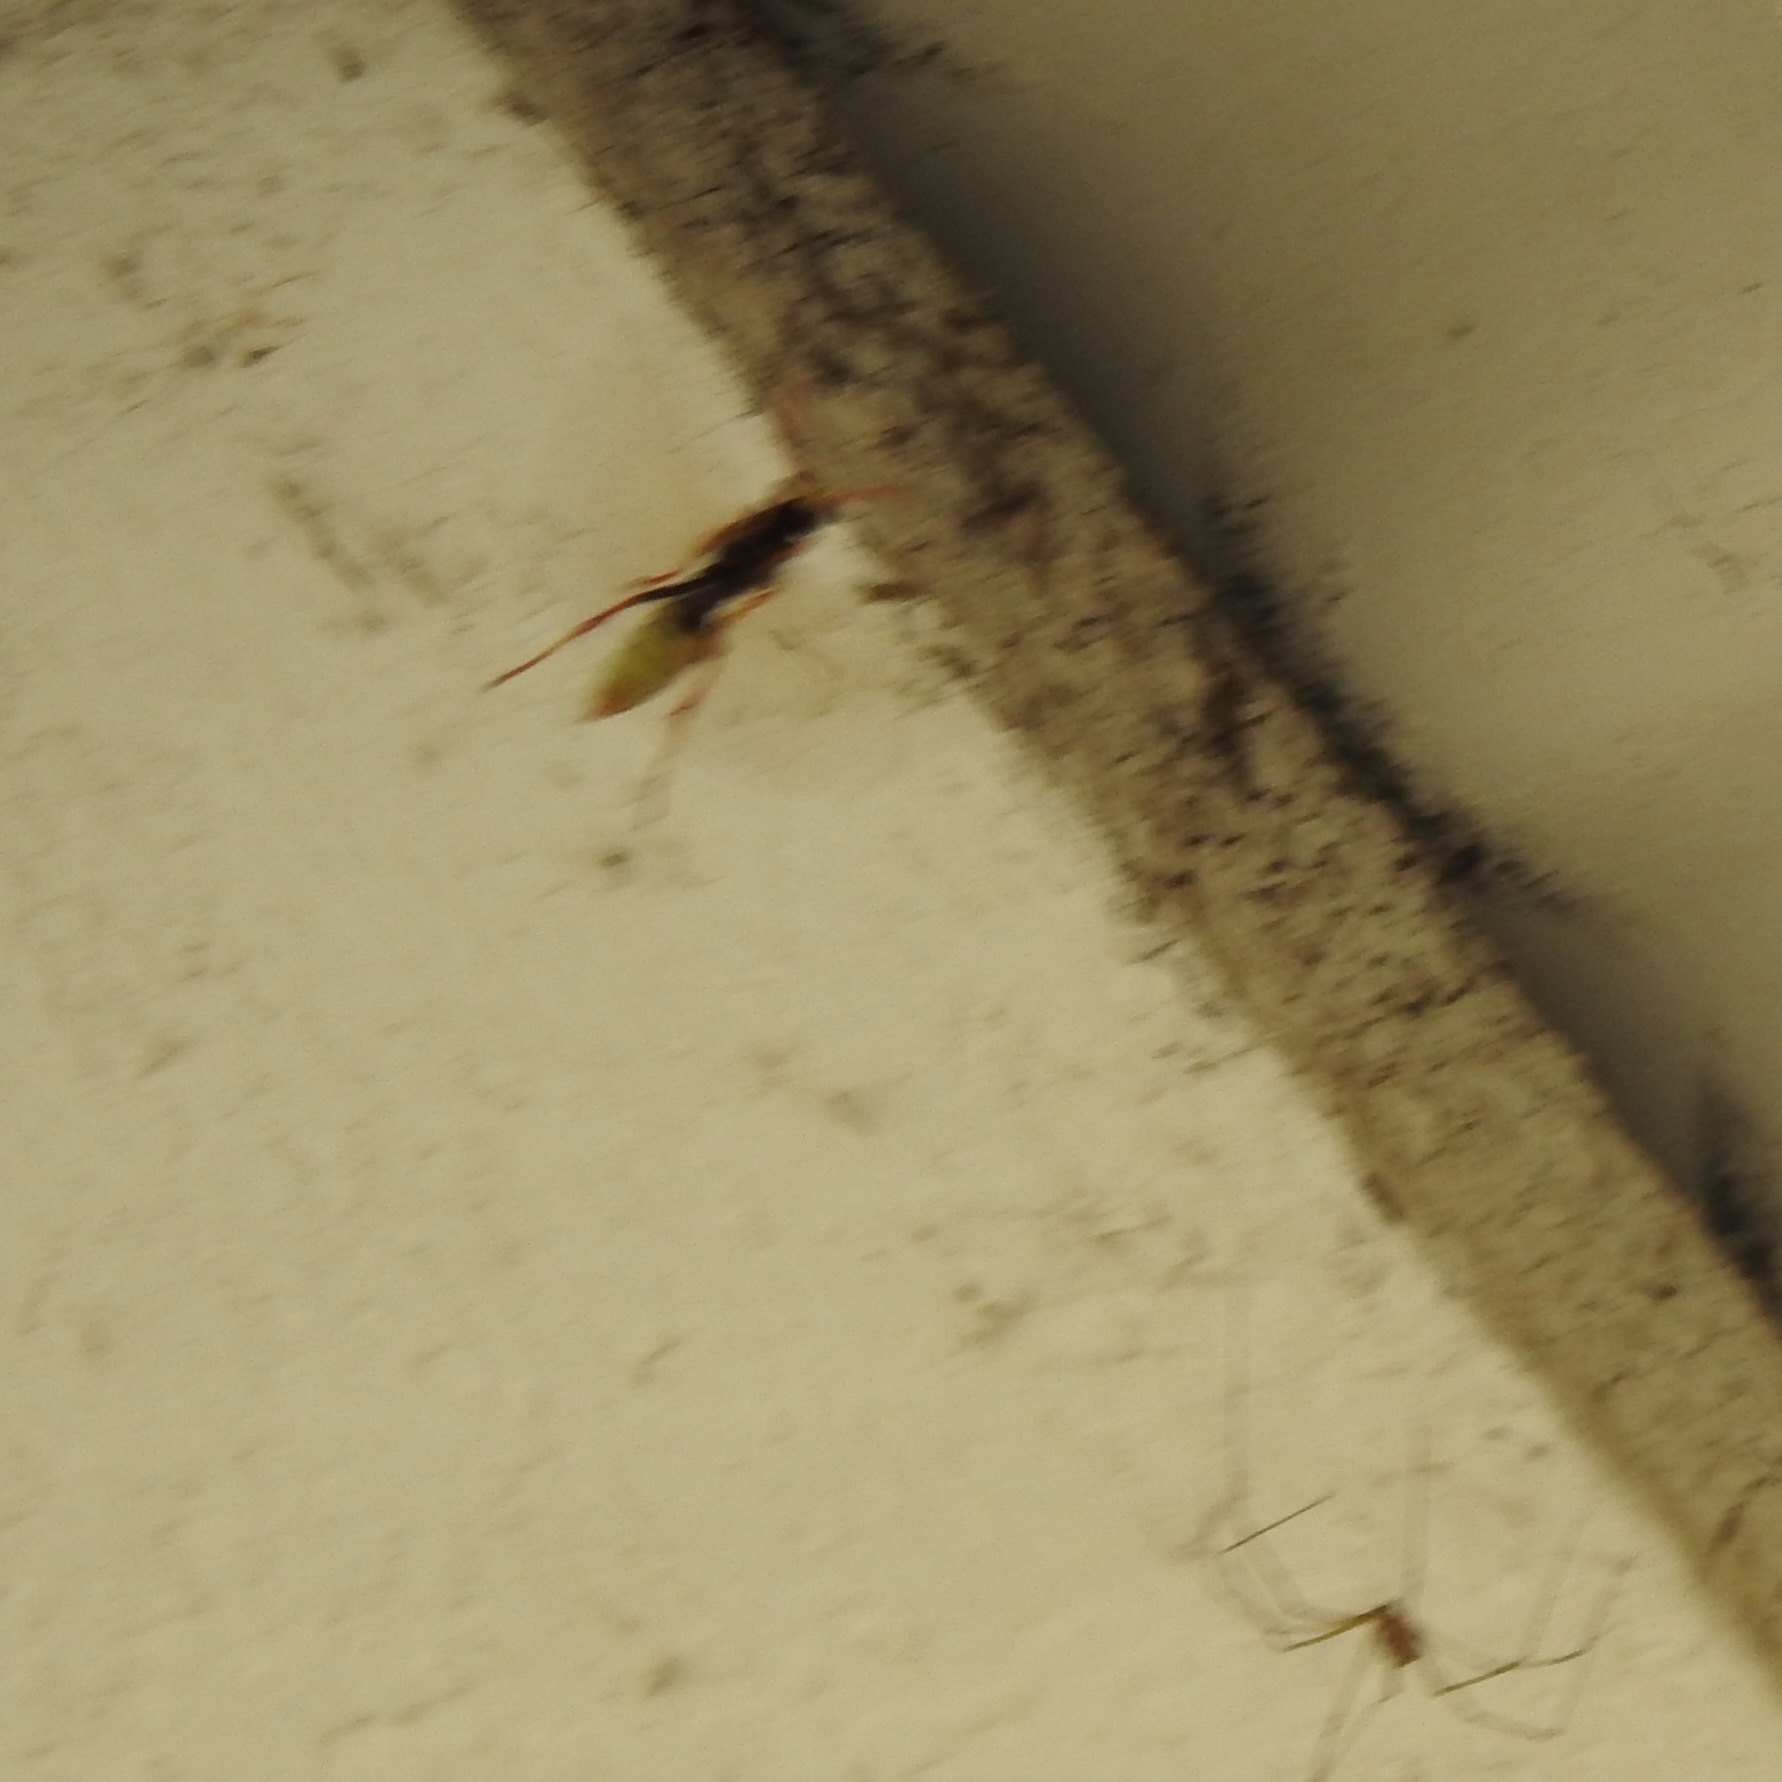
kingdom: Animalia
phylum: Arthropoda
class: Insecta
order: Hymenoptera
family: Eumenidae
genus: Polistes
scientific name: Polistes
